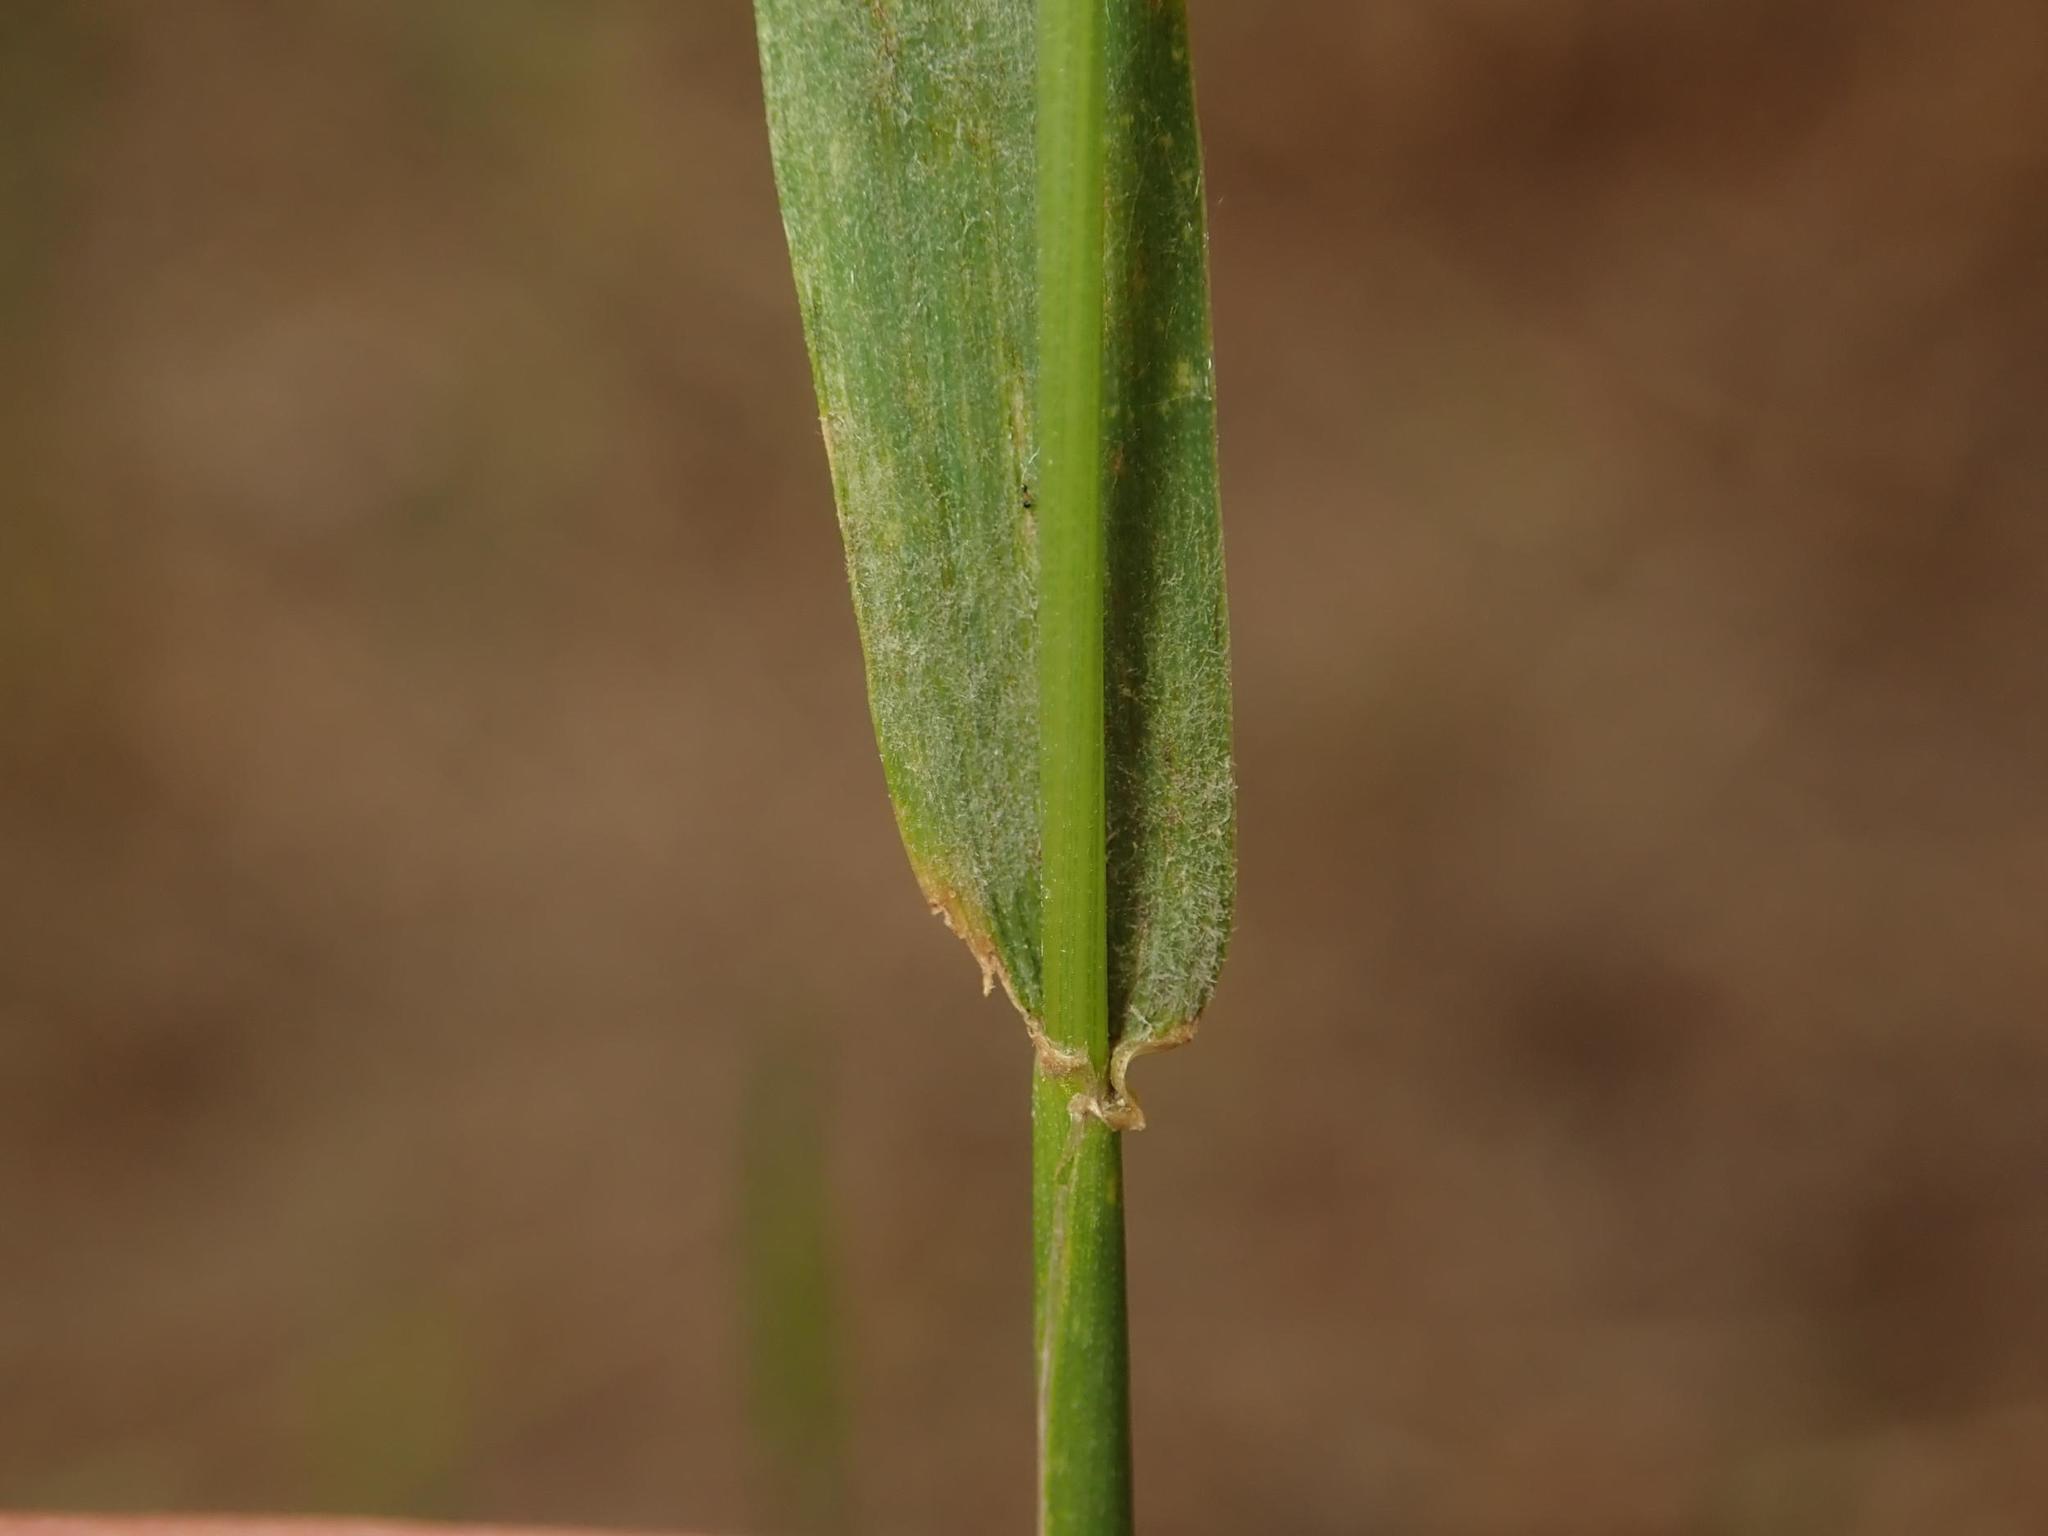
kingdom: Plantae
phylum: Tracheophyta
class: Liliopsida
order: Poales
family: Poaceae
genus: Hordeum
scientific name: Hordeum murinum
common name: Wall barley
